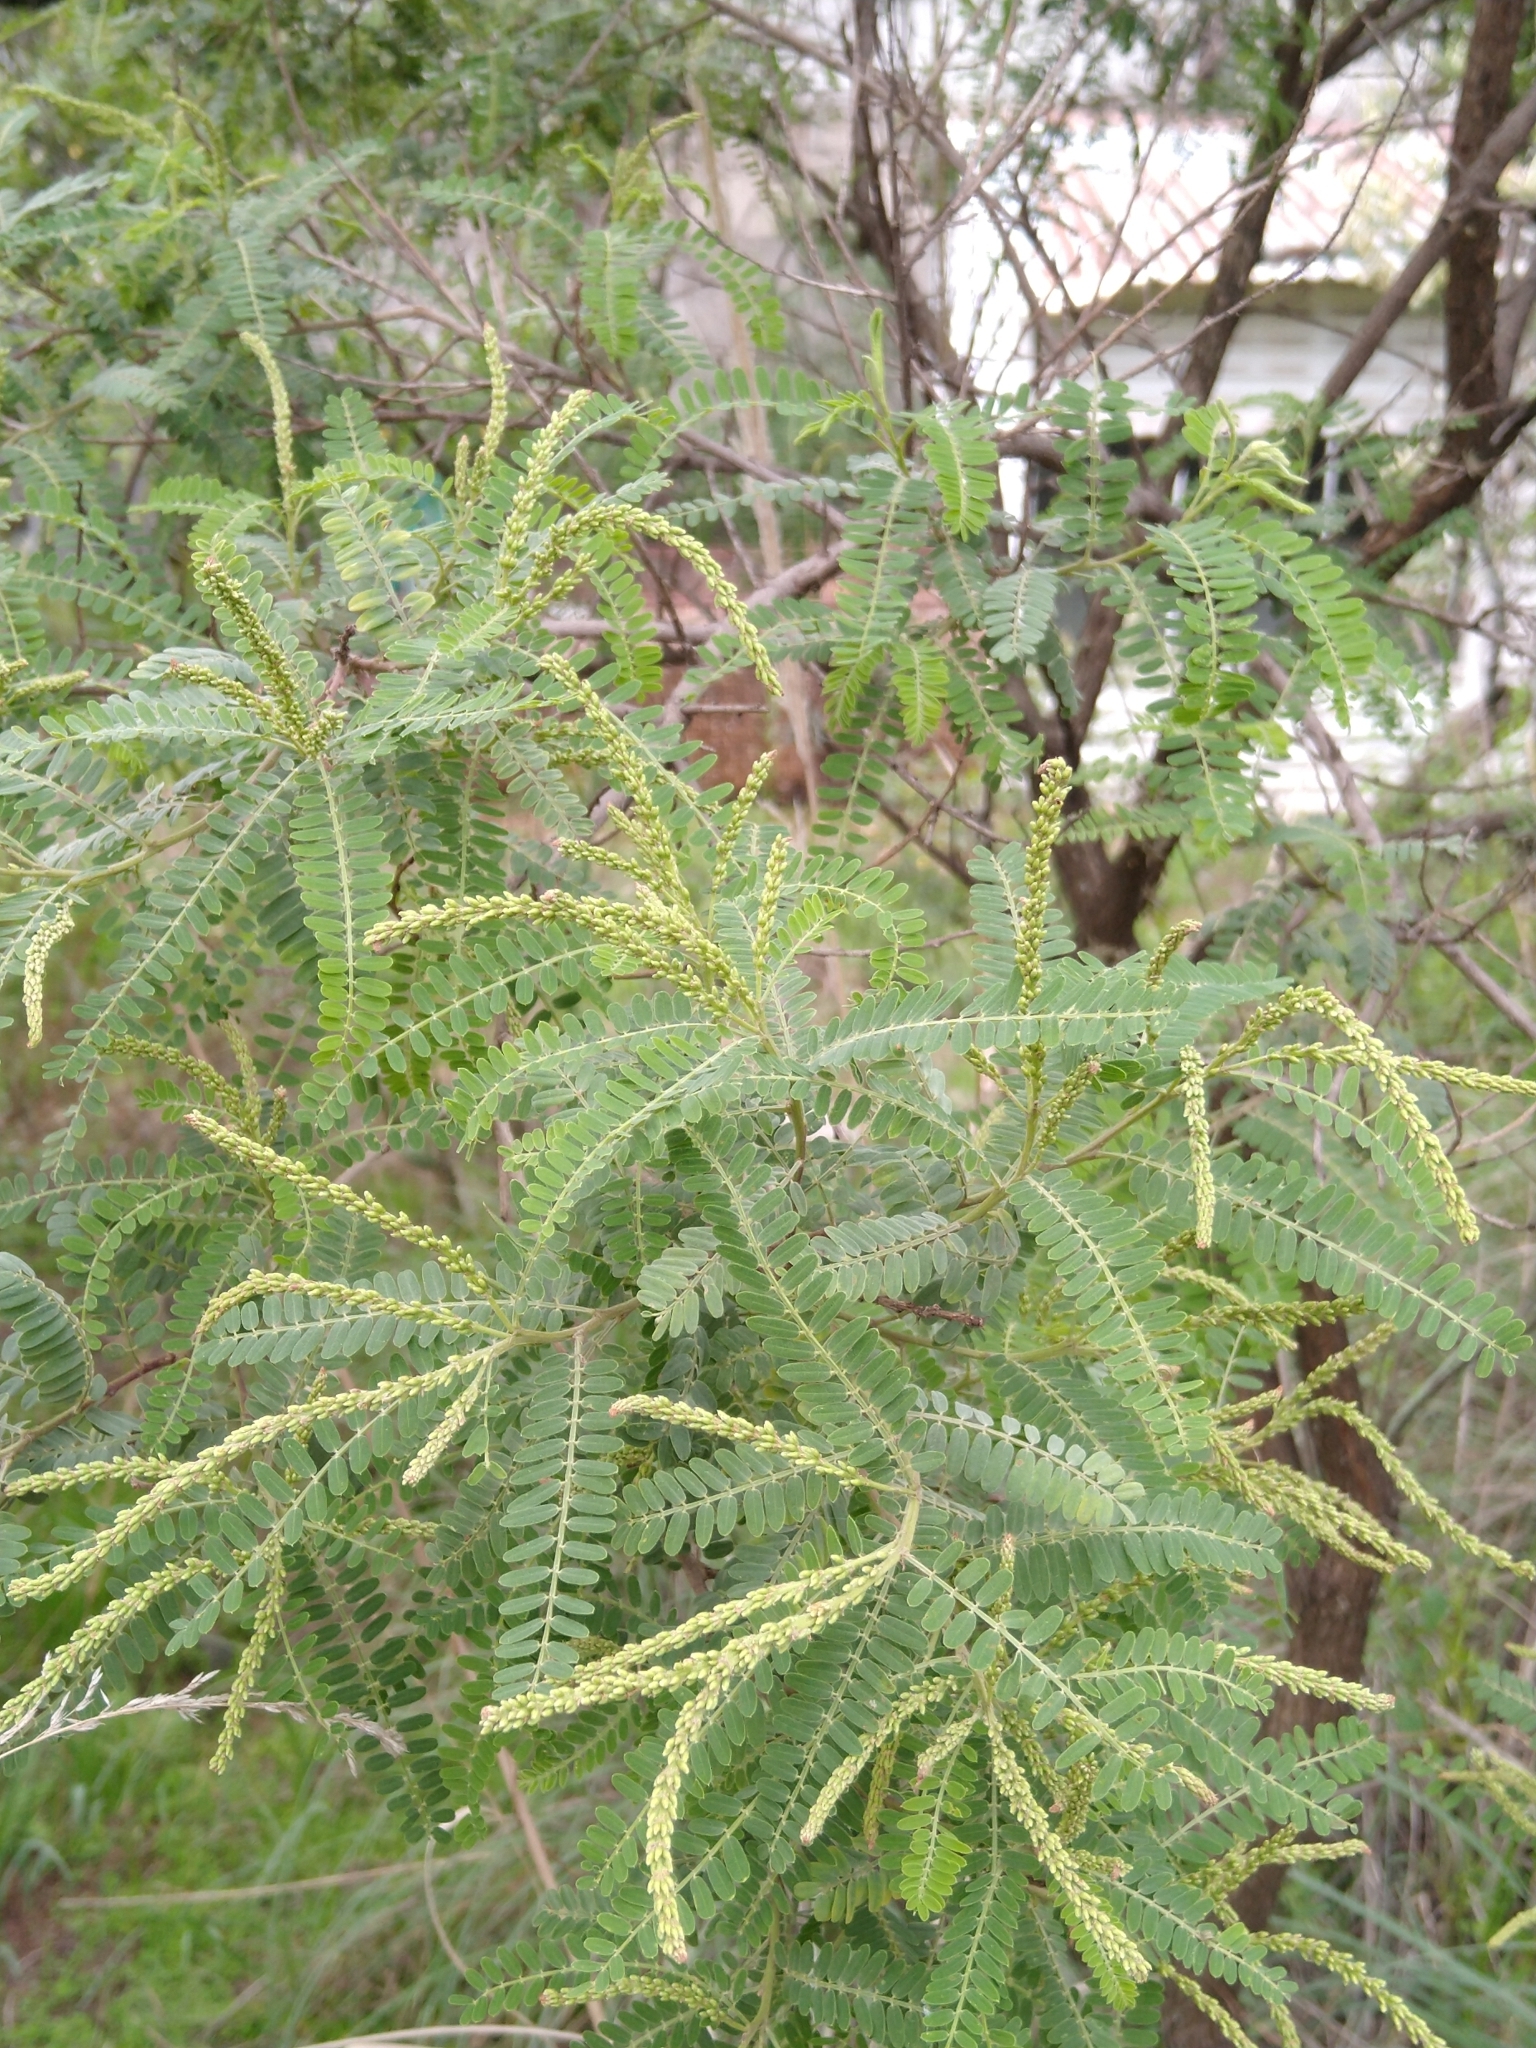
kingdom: Plantae
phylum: Tracheophyta
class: Magnoliopsida
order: Fabales
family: Fabaceae
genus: Eysenhardtia
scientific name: Eysenhardtia polystachya
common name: Kidneywood
